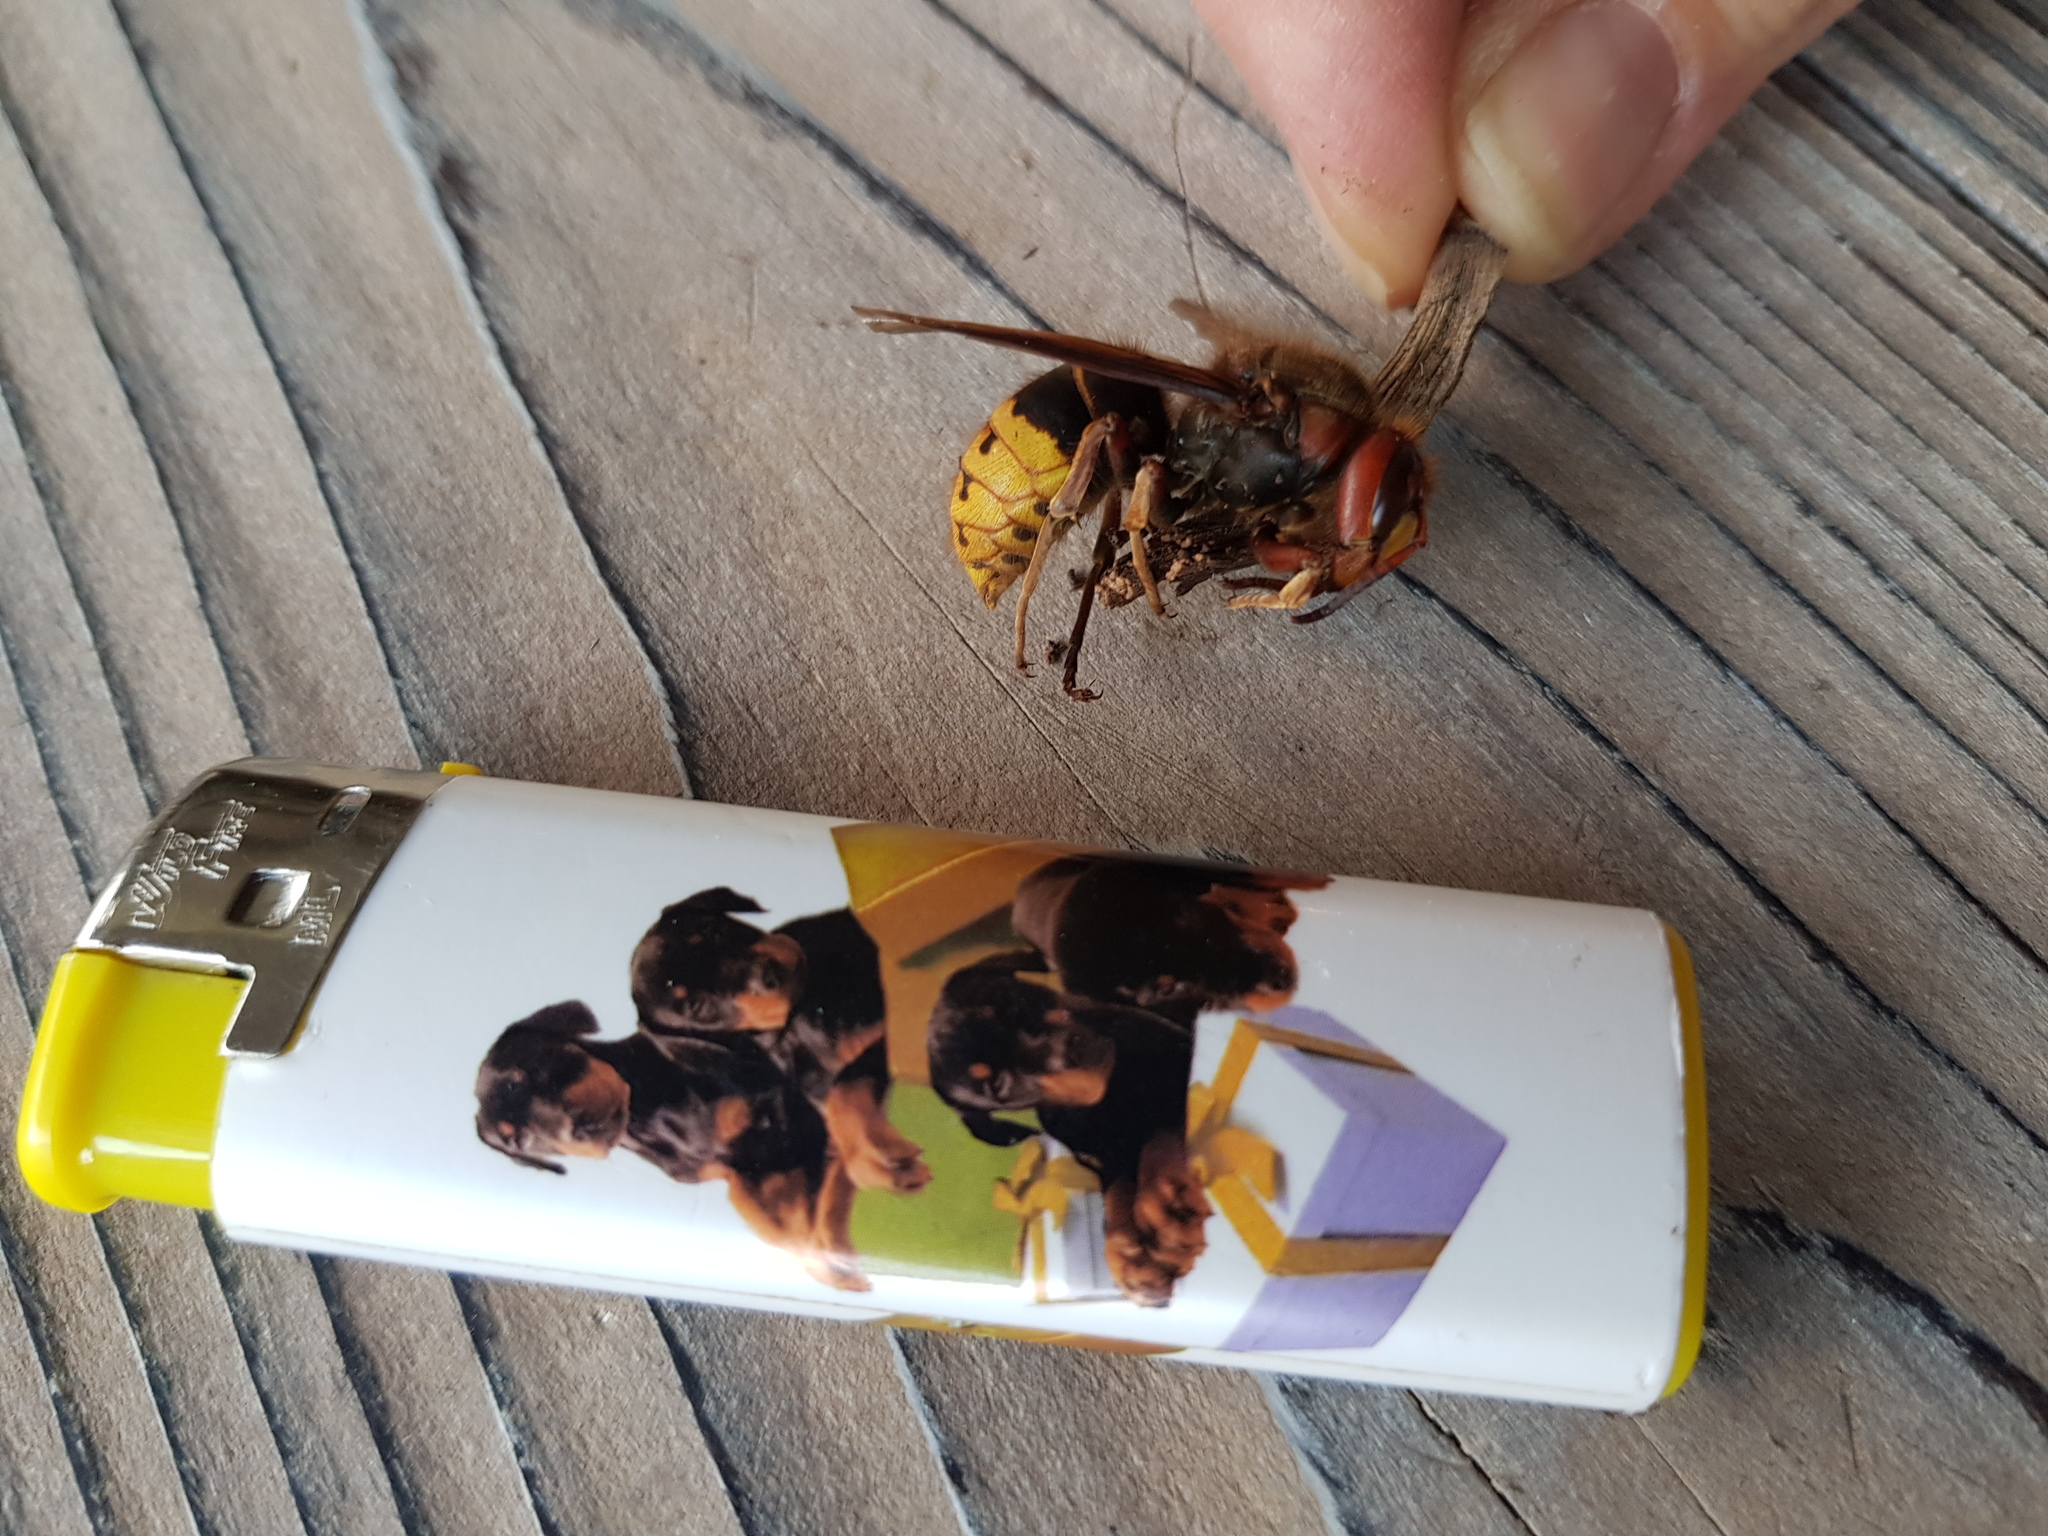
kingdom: Animalia
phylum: Arthropoda
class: Insecta
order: Hymenoptera
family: Vespidae
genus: Vespa
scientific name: Vespa crabro
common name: Hornet
